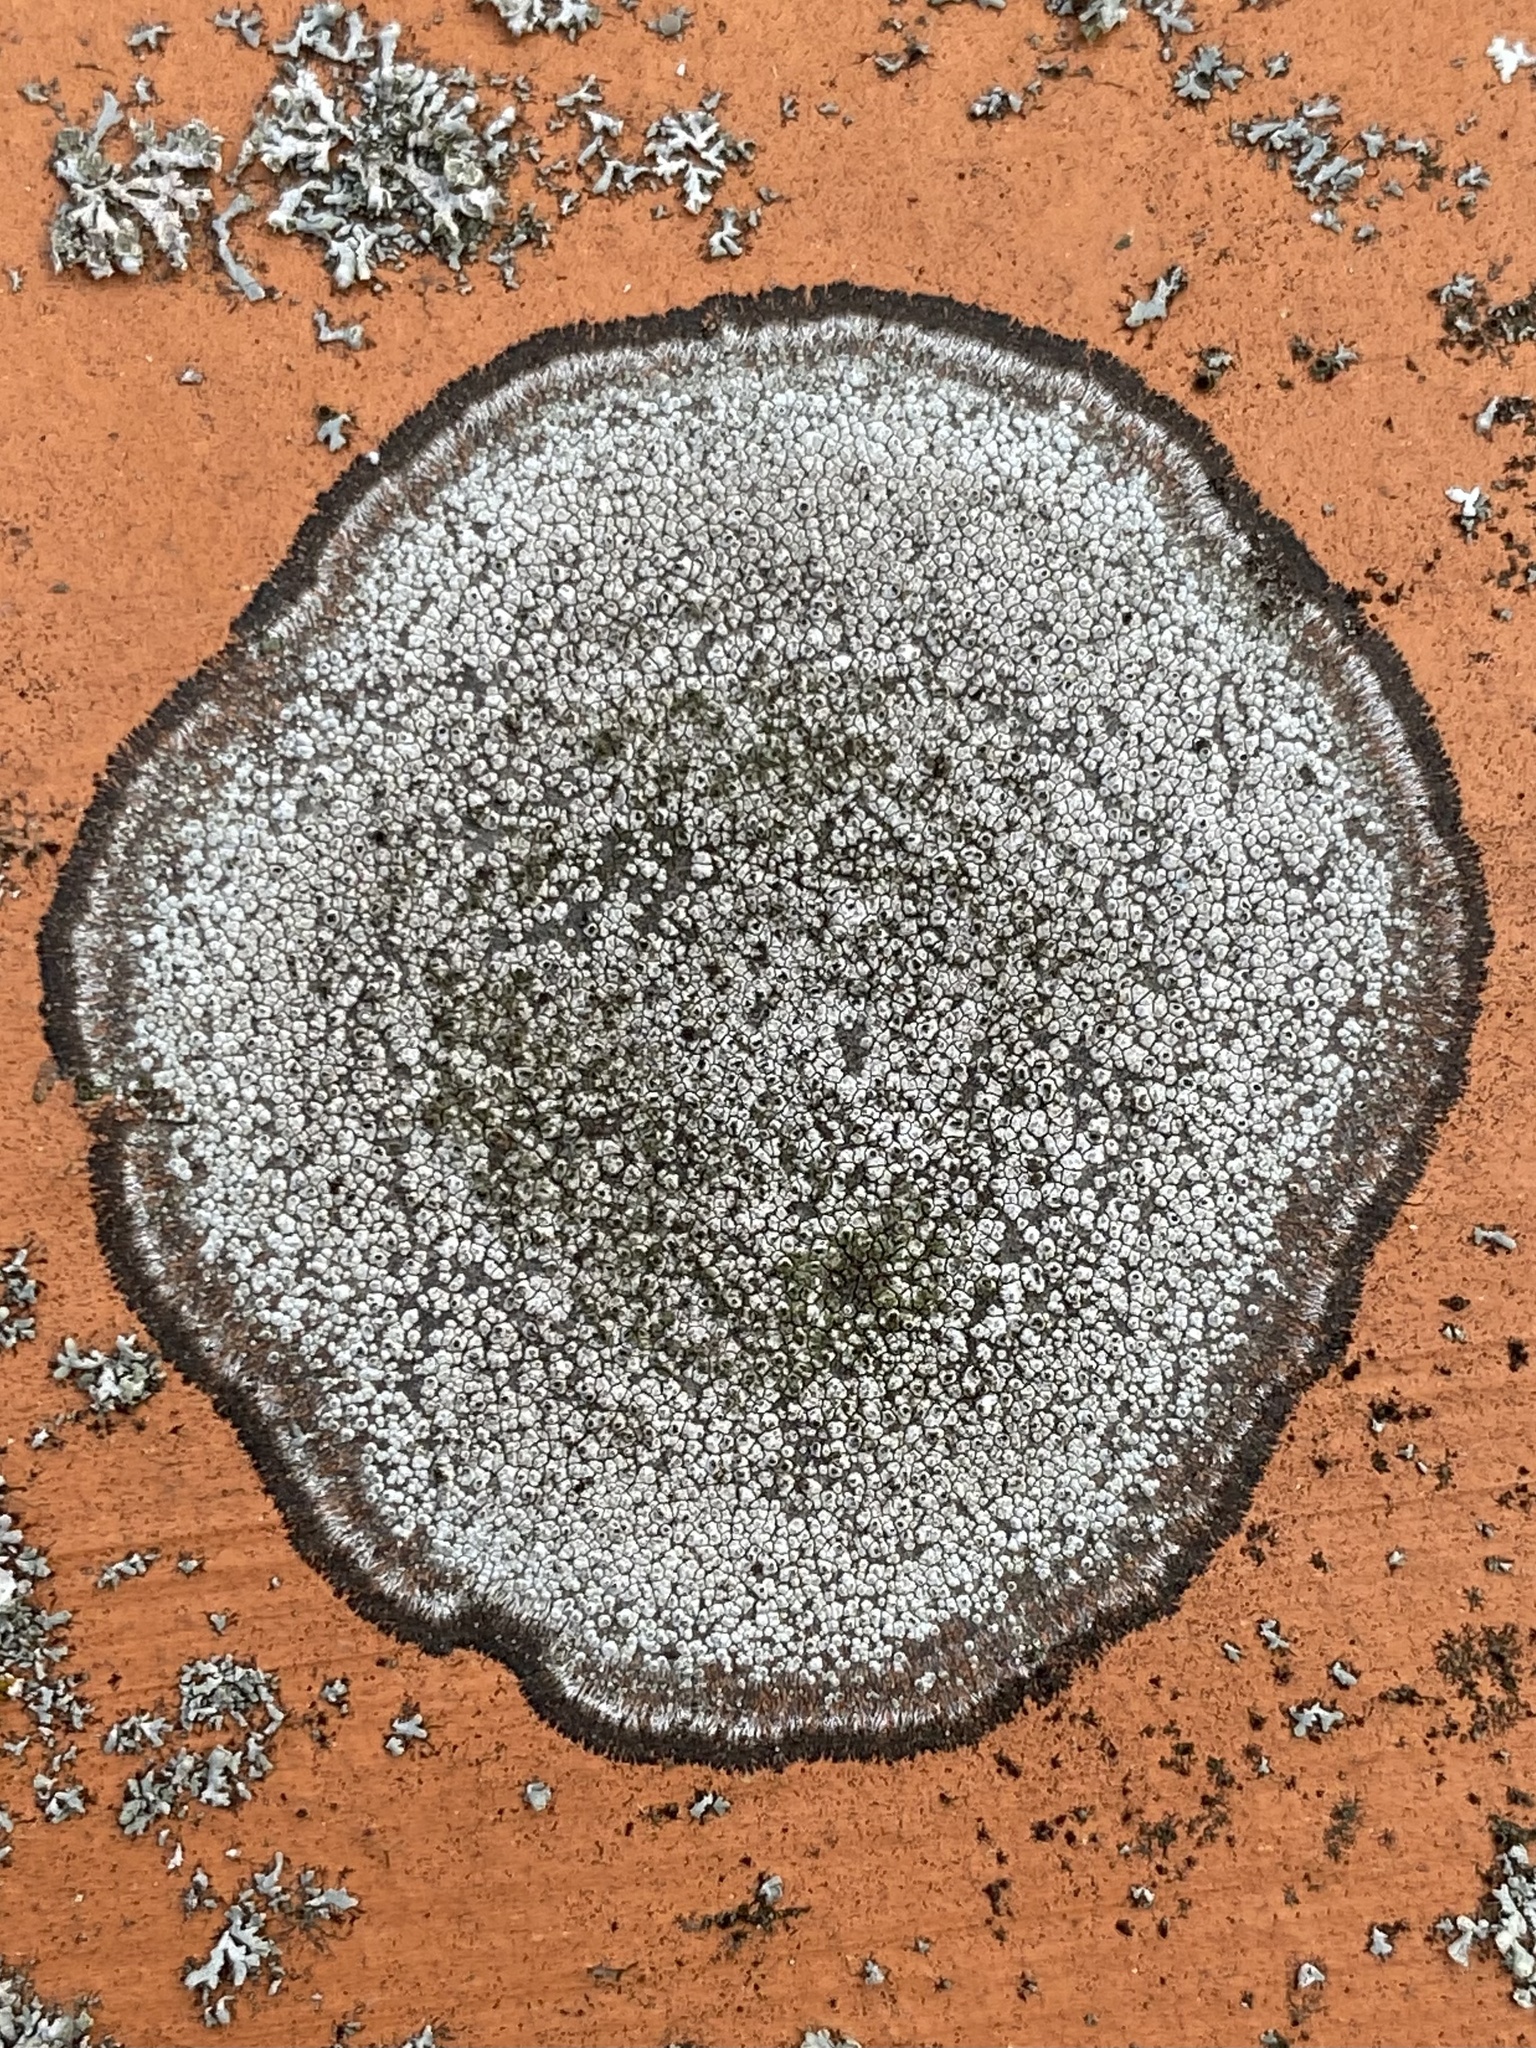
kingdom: Fungi
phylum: Ascomycota
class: Lecanoromycetes
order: Caliciales
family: Caliciaceae
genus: Dimelaena
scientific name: Dimelaena oreina
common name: Golden moonglow lichen
